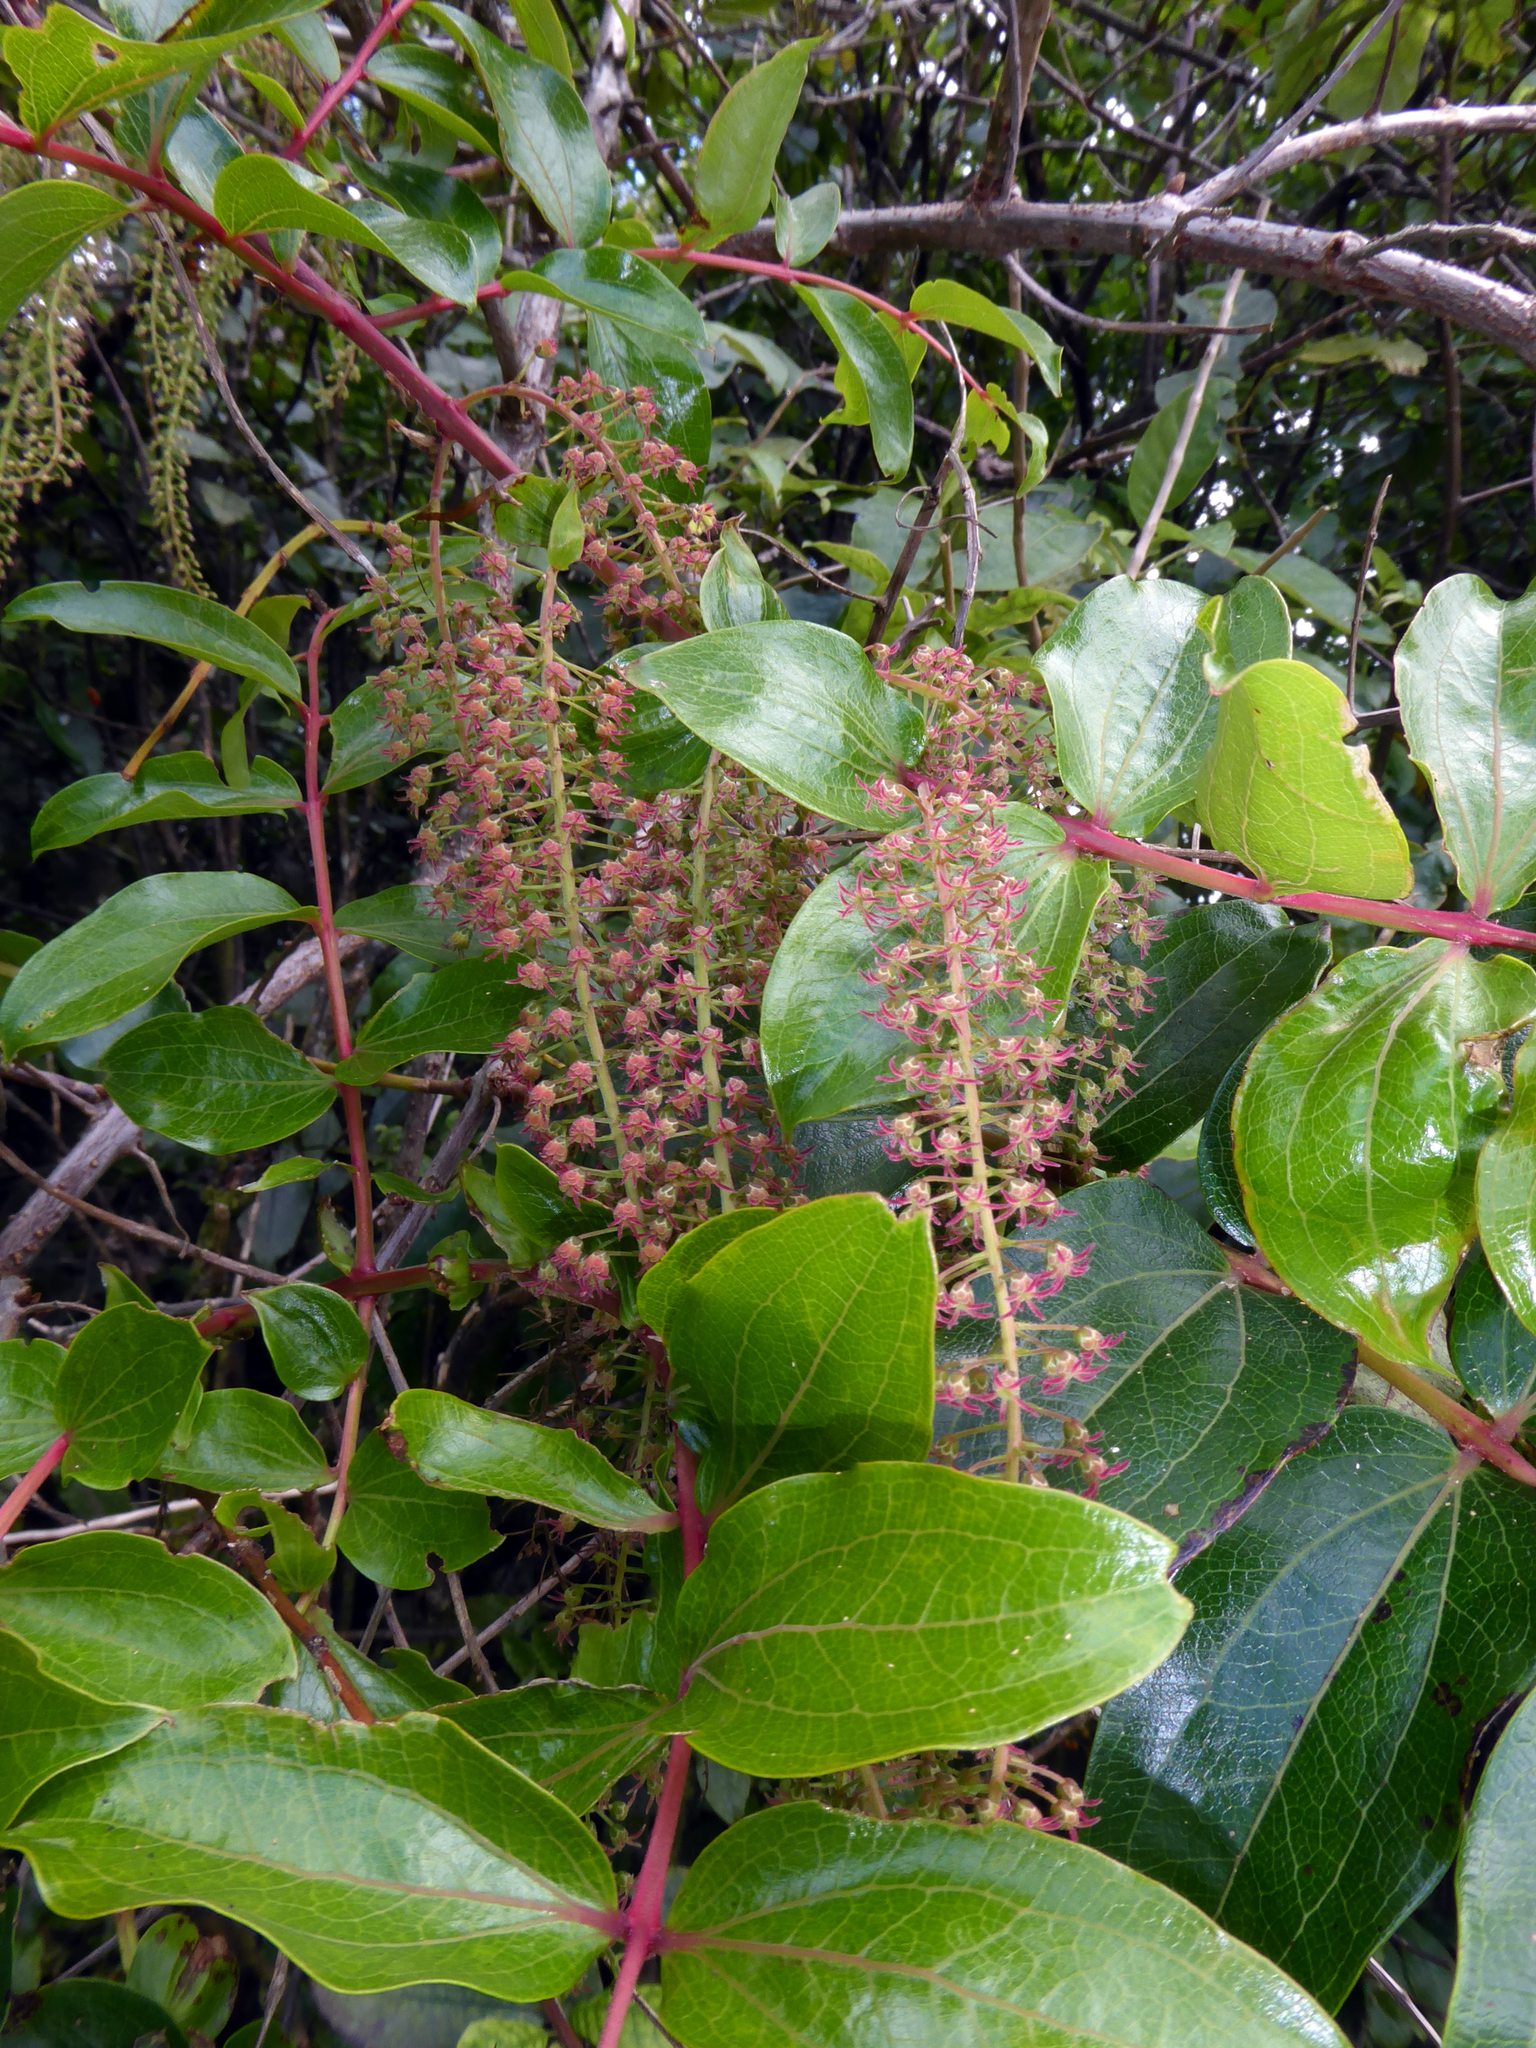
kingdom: Plantae
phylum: Tracheophyta
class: Magnoliopsida
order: Cucurbitales
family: Coriariaceae
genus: Coriaria
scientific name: Coriaria arborea
